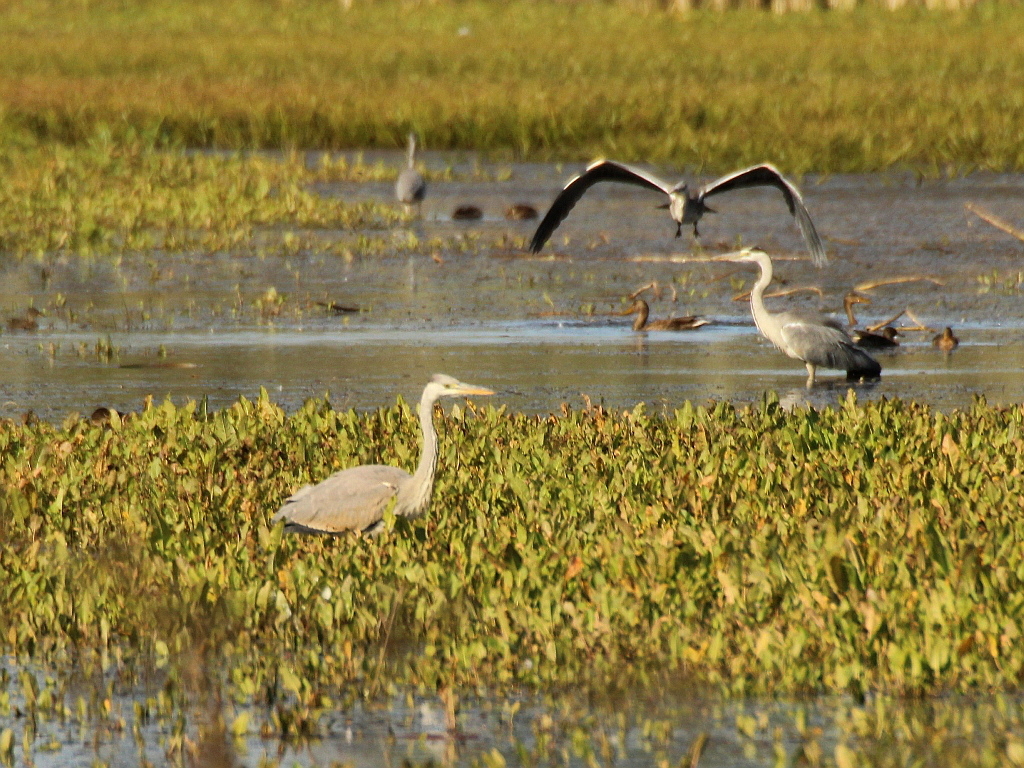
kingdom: Animalia
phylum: Chordata
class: Aves
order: Pelecaniformes
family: Ardeidae
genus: Ardea
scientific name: Ardea cinerea
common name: Grey heron
